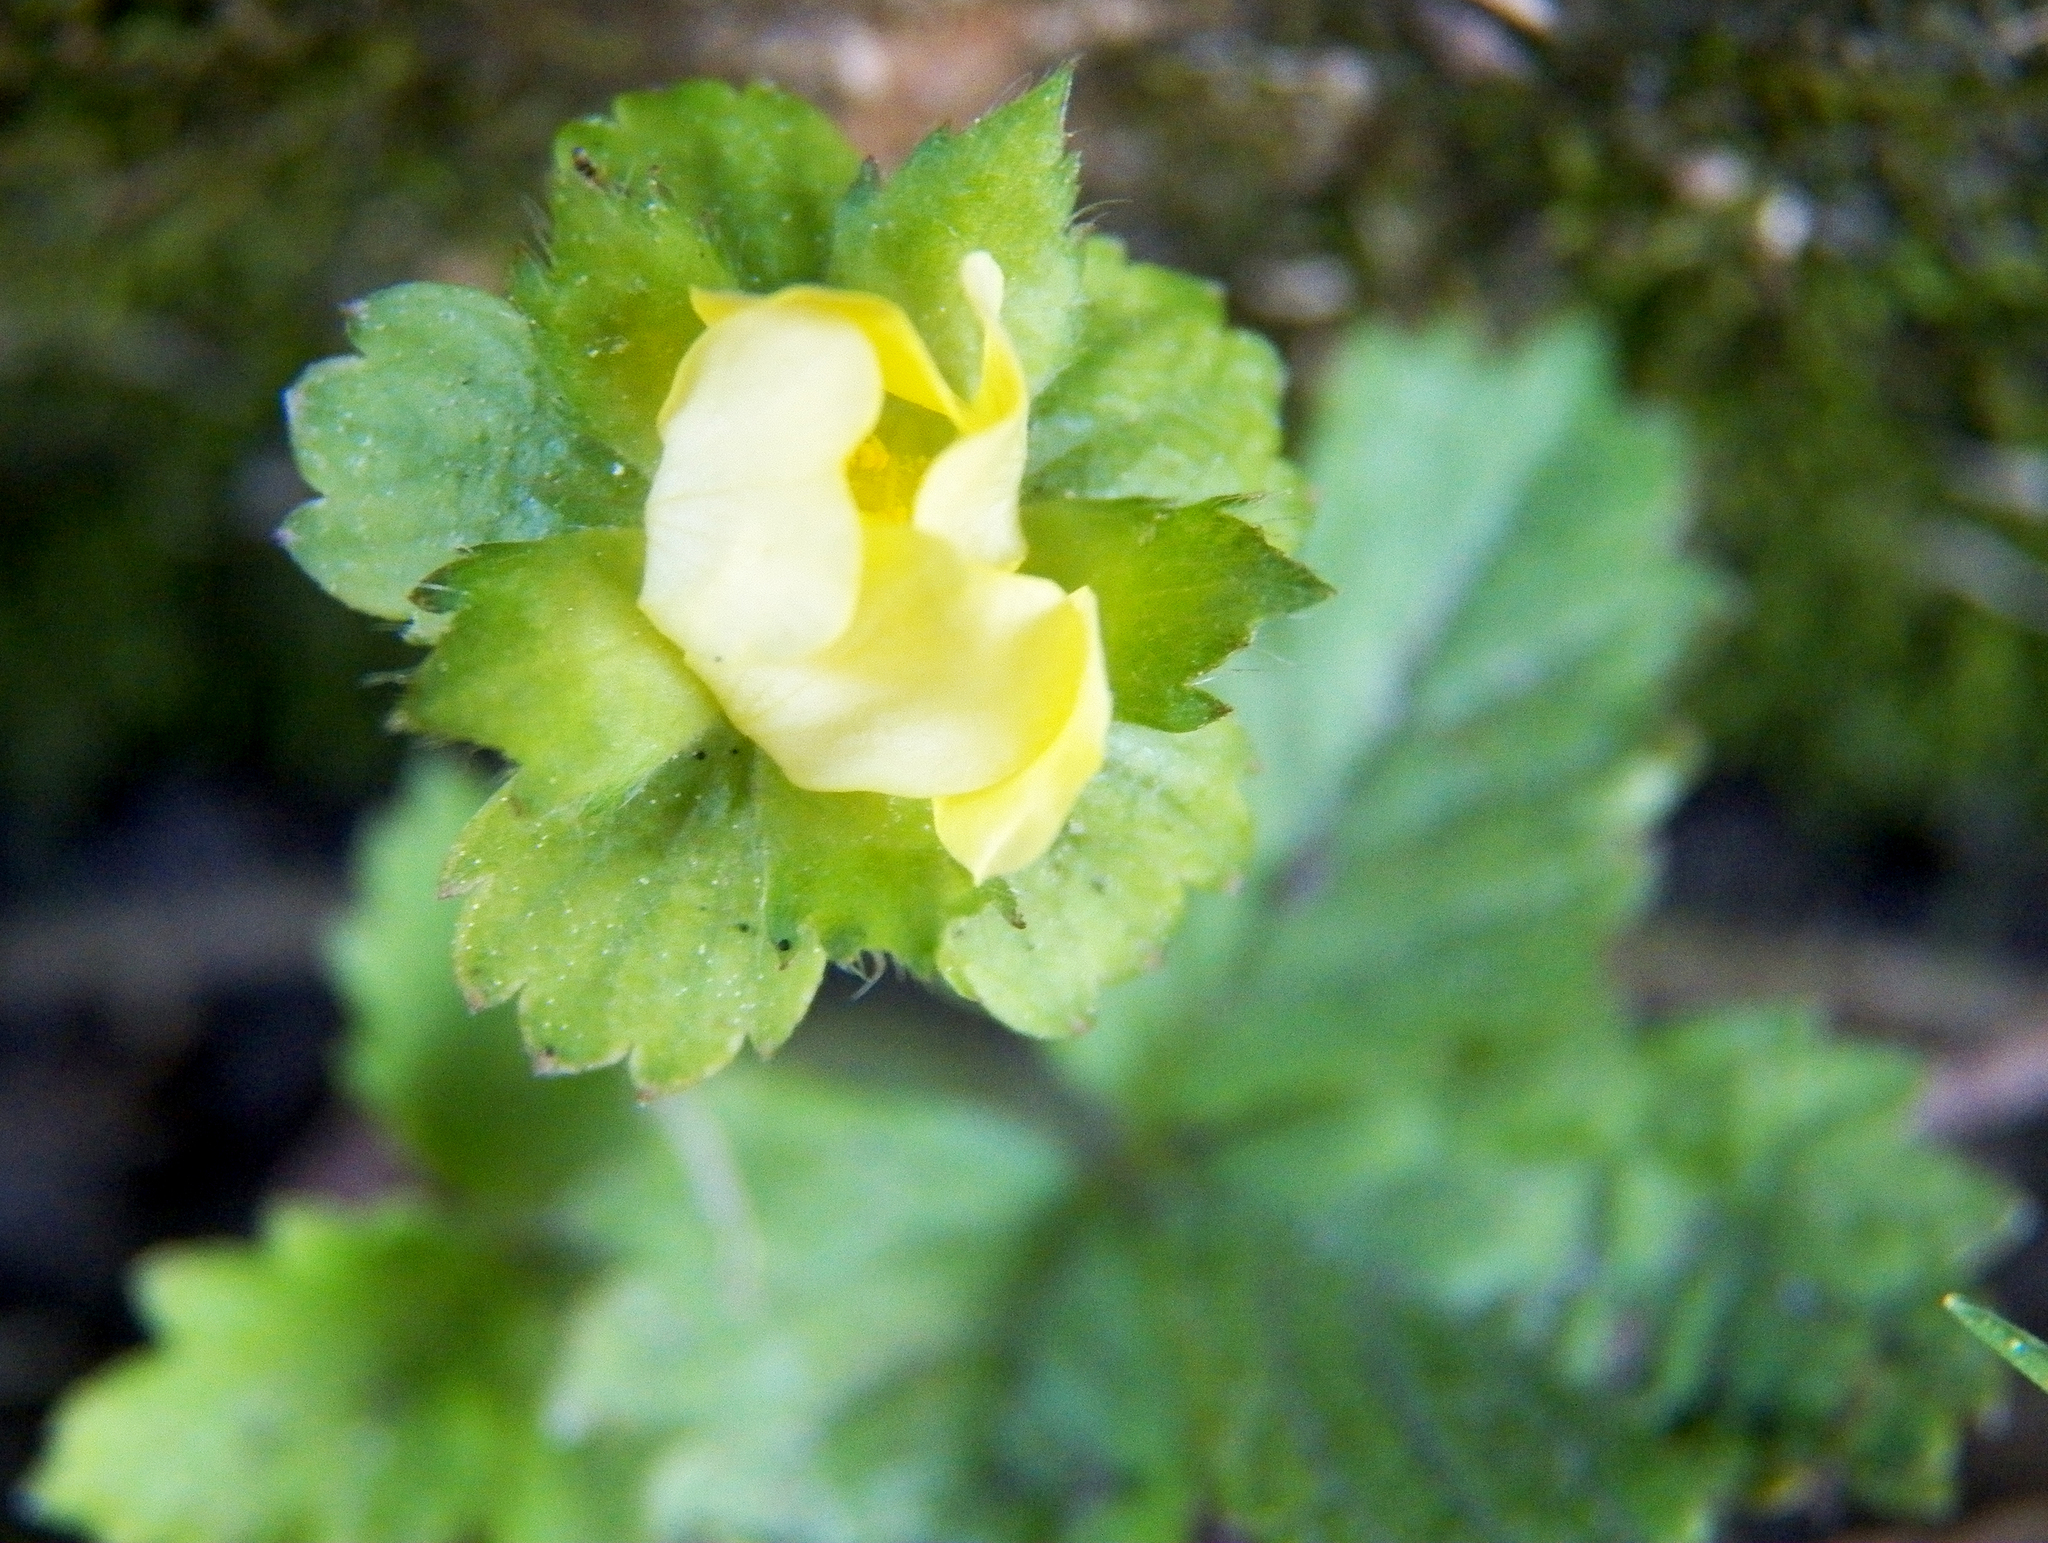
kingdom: Plantae
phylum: Tracheophyta
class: Magnoliopsida
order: Rosales
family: Rosaceae
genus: Potentilla
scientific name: Potentilla indica
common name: Yellow-flowered strawberry
